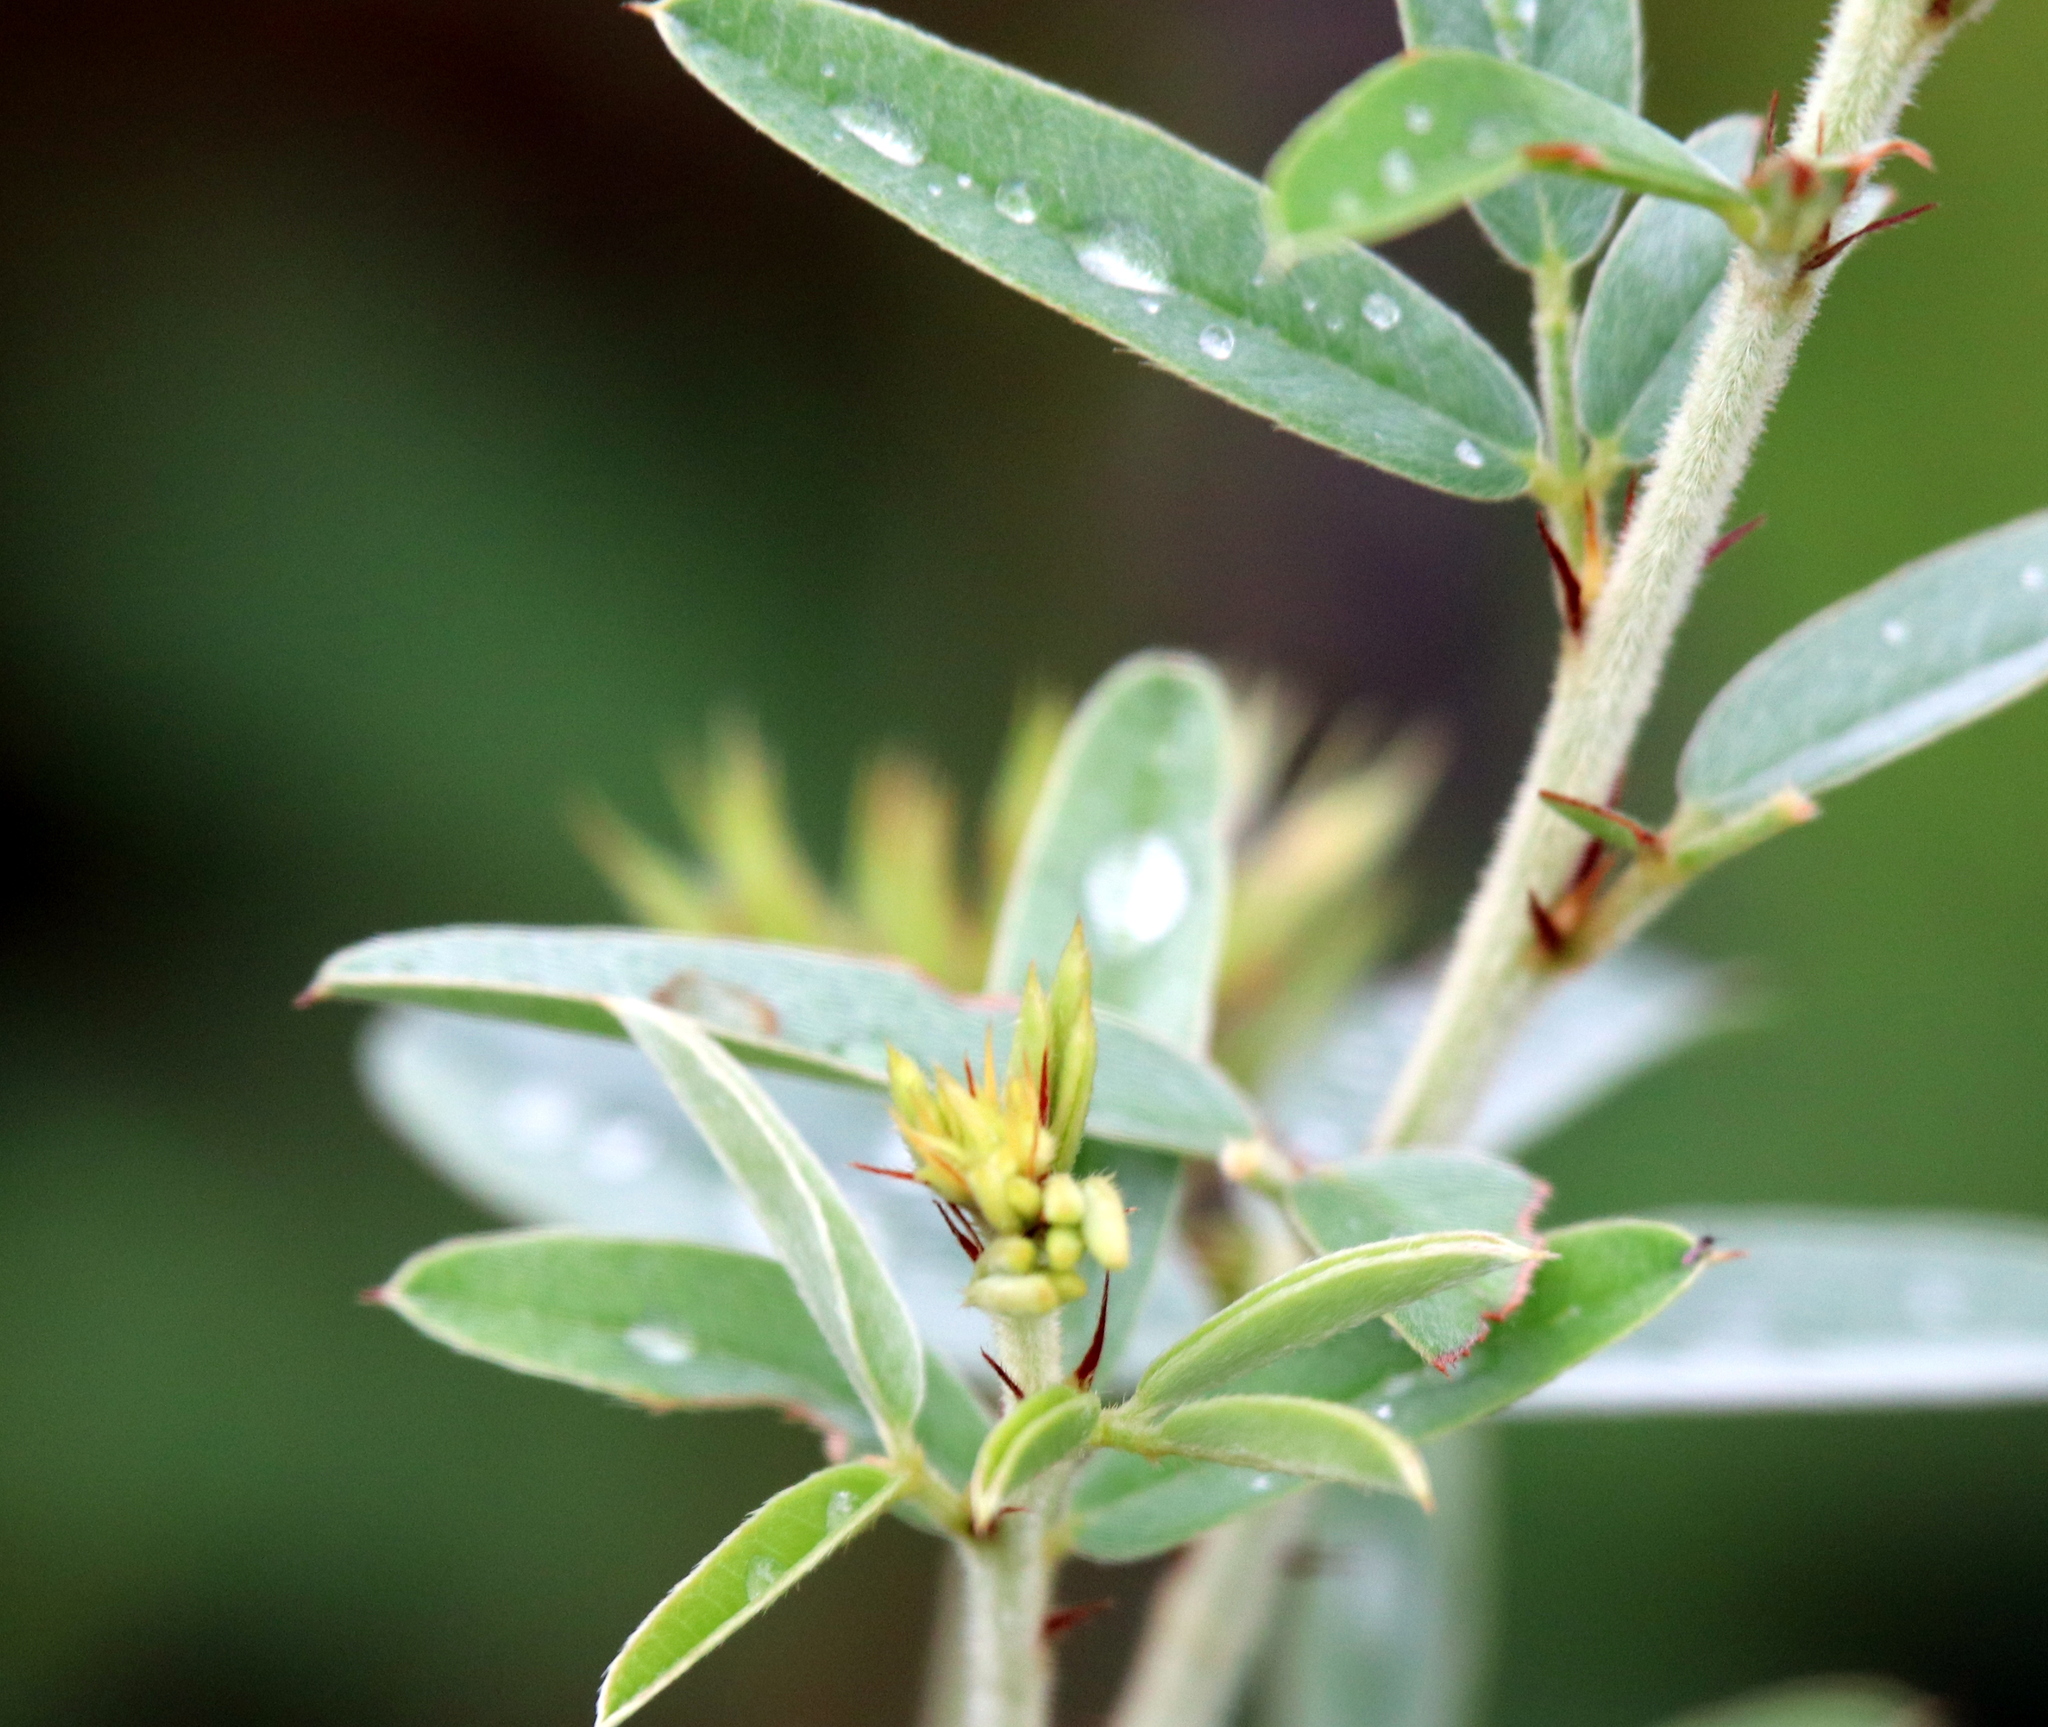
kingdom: Plantae
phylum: Tracheophyta
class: Magnoliopsida
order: Fabales
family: Fabaceae
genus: Lespedeza
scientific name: Lespedeza capitata
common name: Dusty clover
